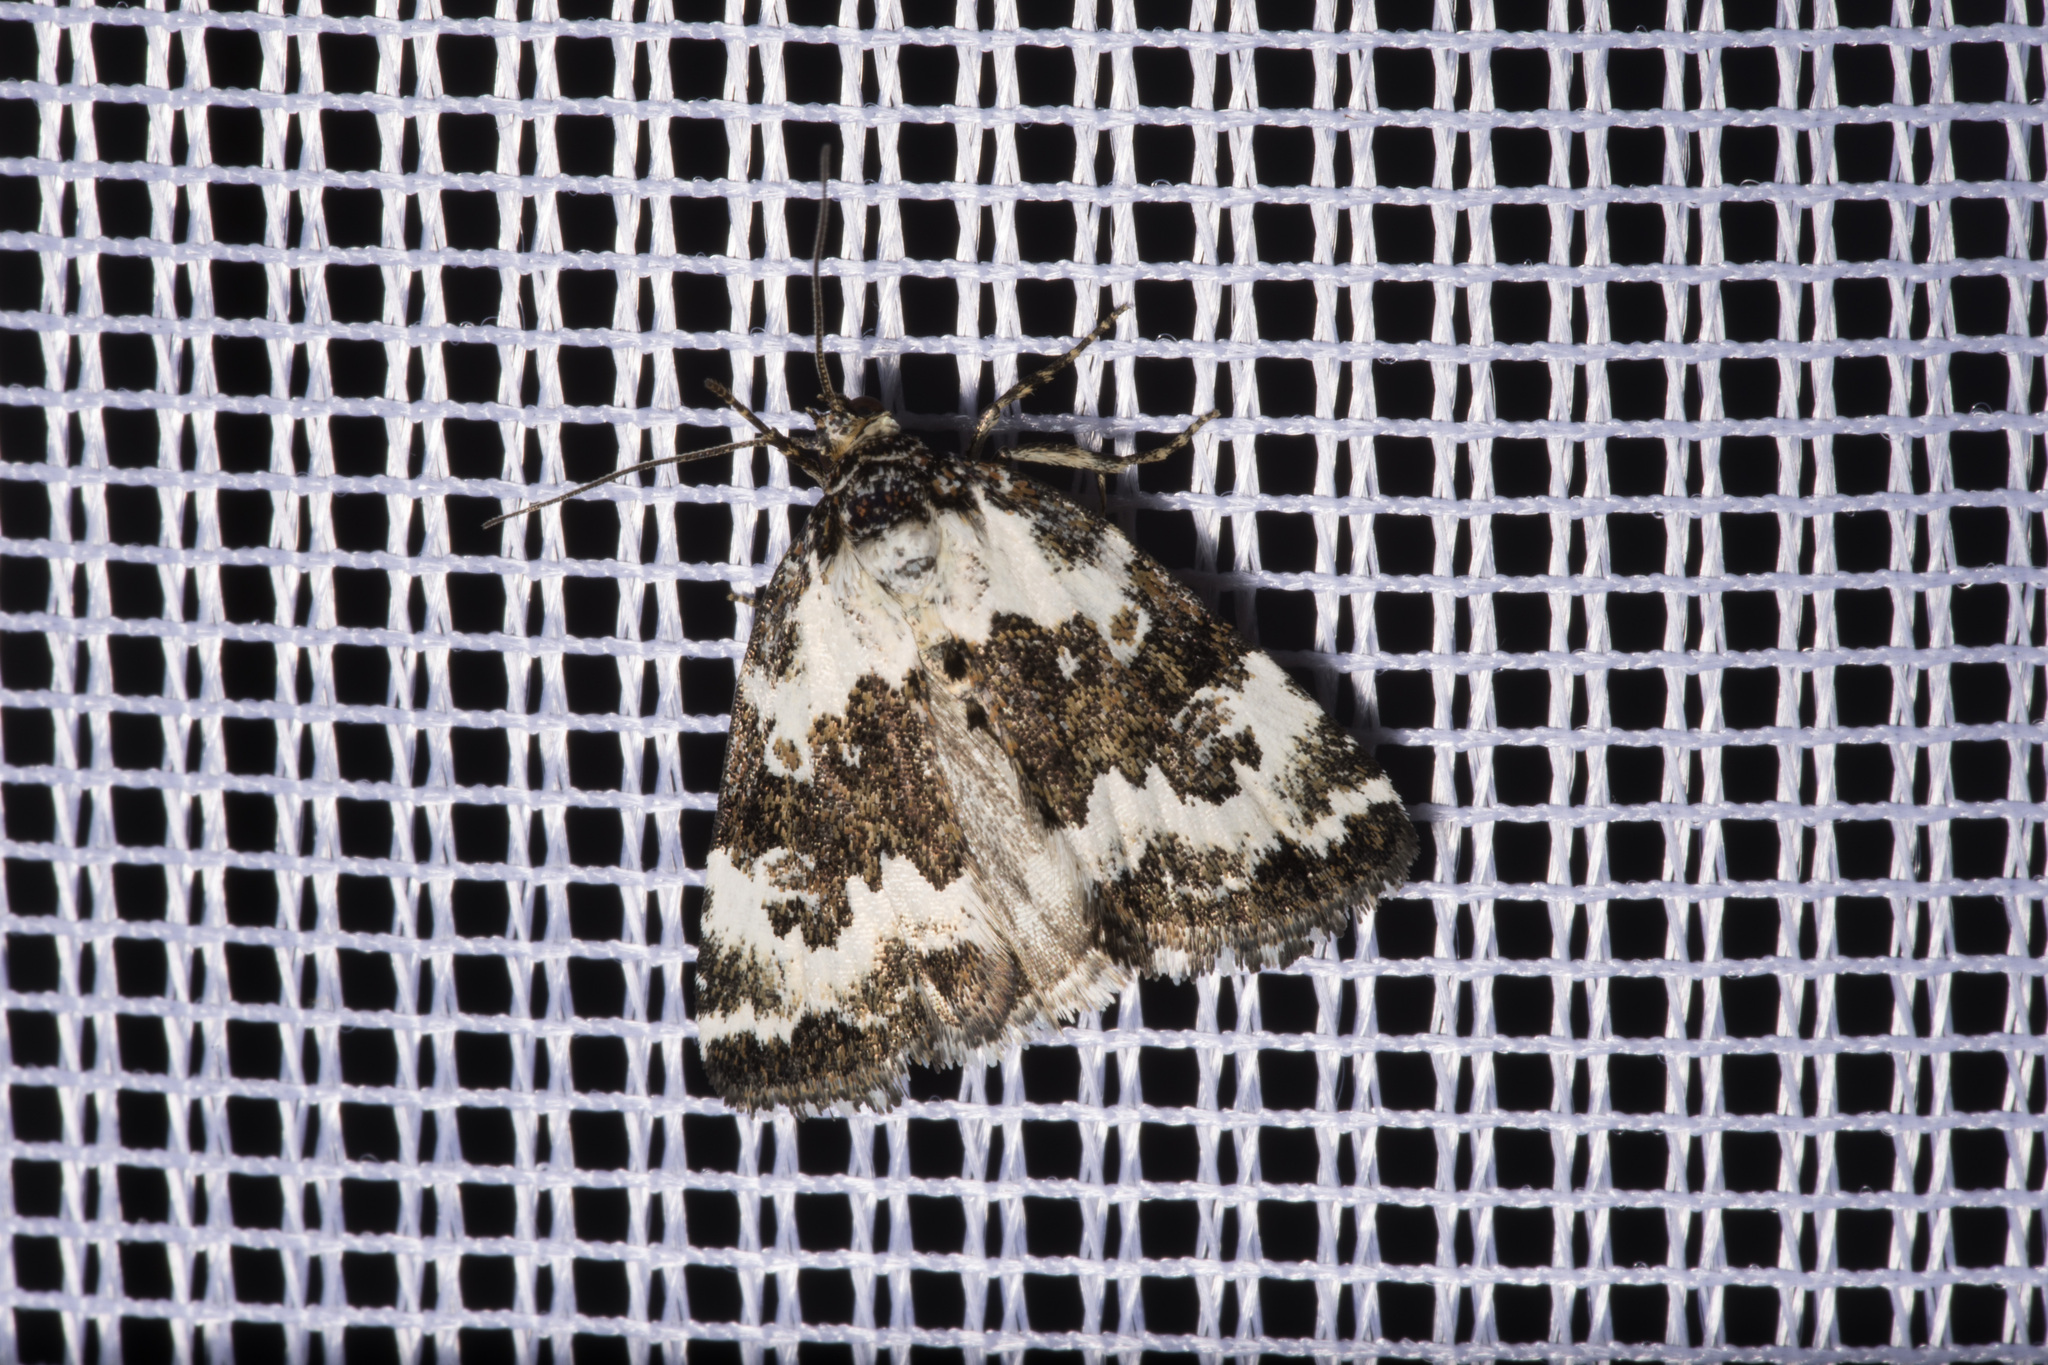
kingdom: Animalia
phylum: Arthropoda
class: Insecta
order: Lepidoptera
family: Noctuidae
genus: Deltote
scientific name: Deltote deceptoria
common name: Pretty marbled
